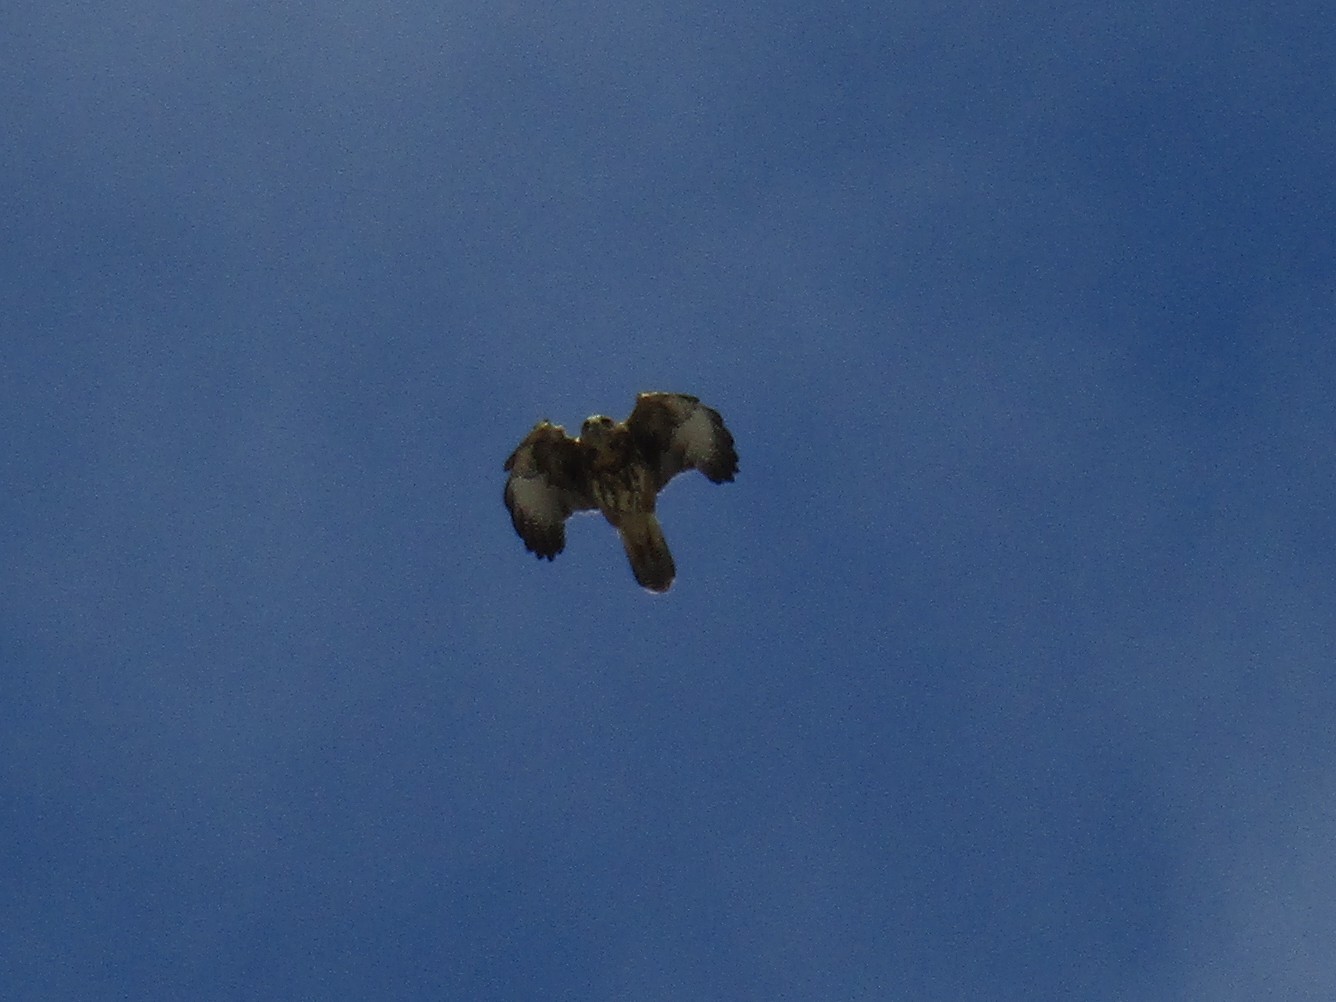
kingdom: Animalia
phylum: Chordata
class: Aves
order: Accipitriformes
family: Accipitridae
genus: Parabuteo
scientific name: Parabuteo unicinctus
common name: Harris's hawk
